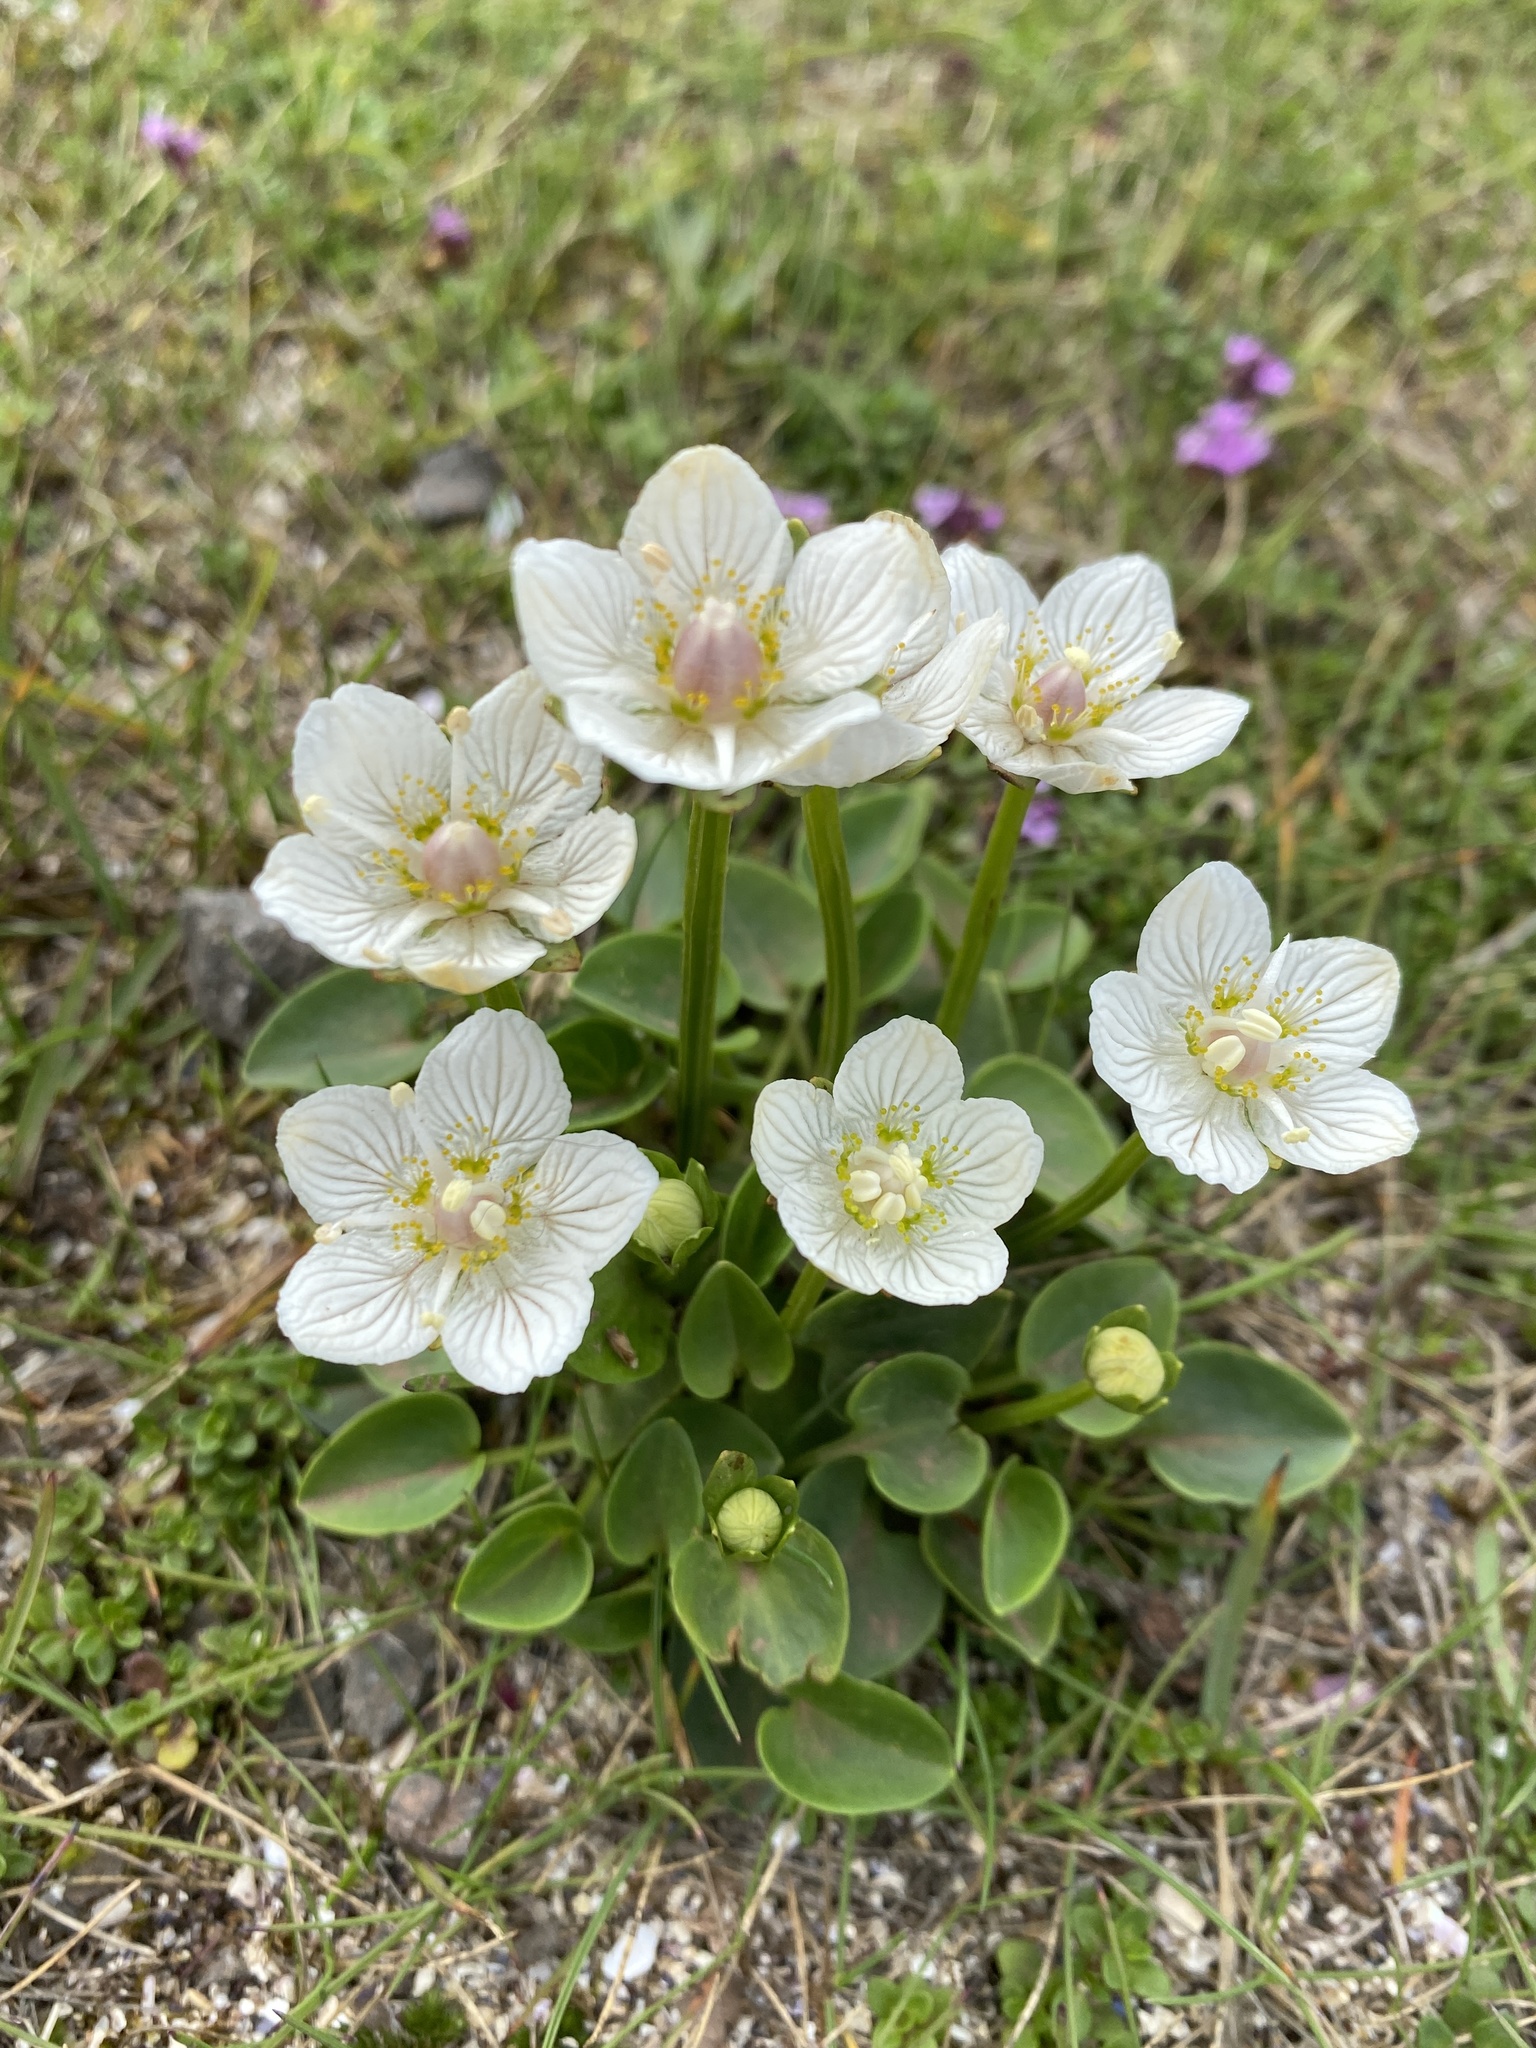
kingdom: Plantae
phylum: Tracheophyta
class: Magnoliopsida
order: Celastrales
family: Parnassiaceae
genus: Parnassia
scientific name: Parnassia palustris
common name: Grass-of-parnassus
